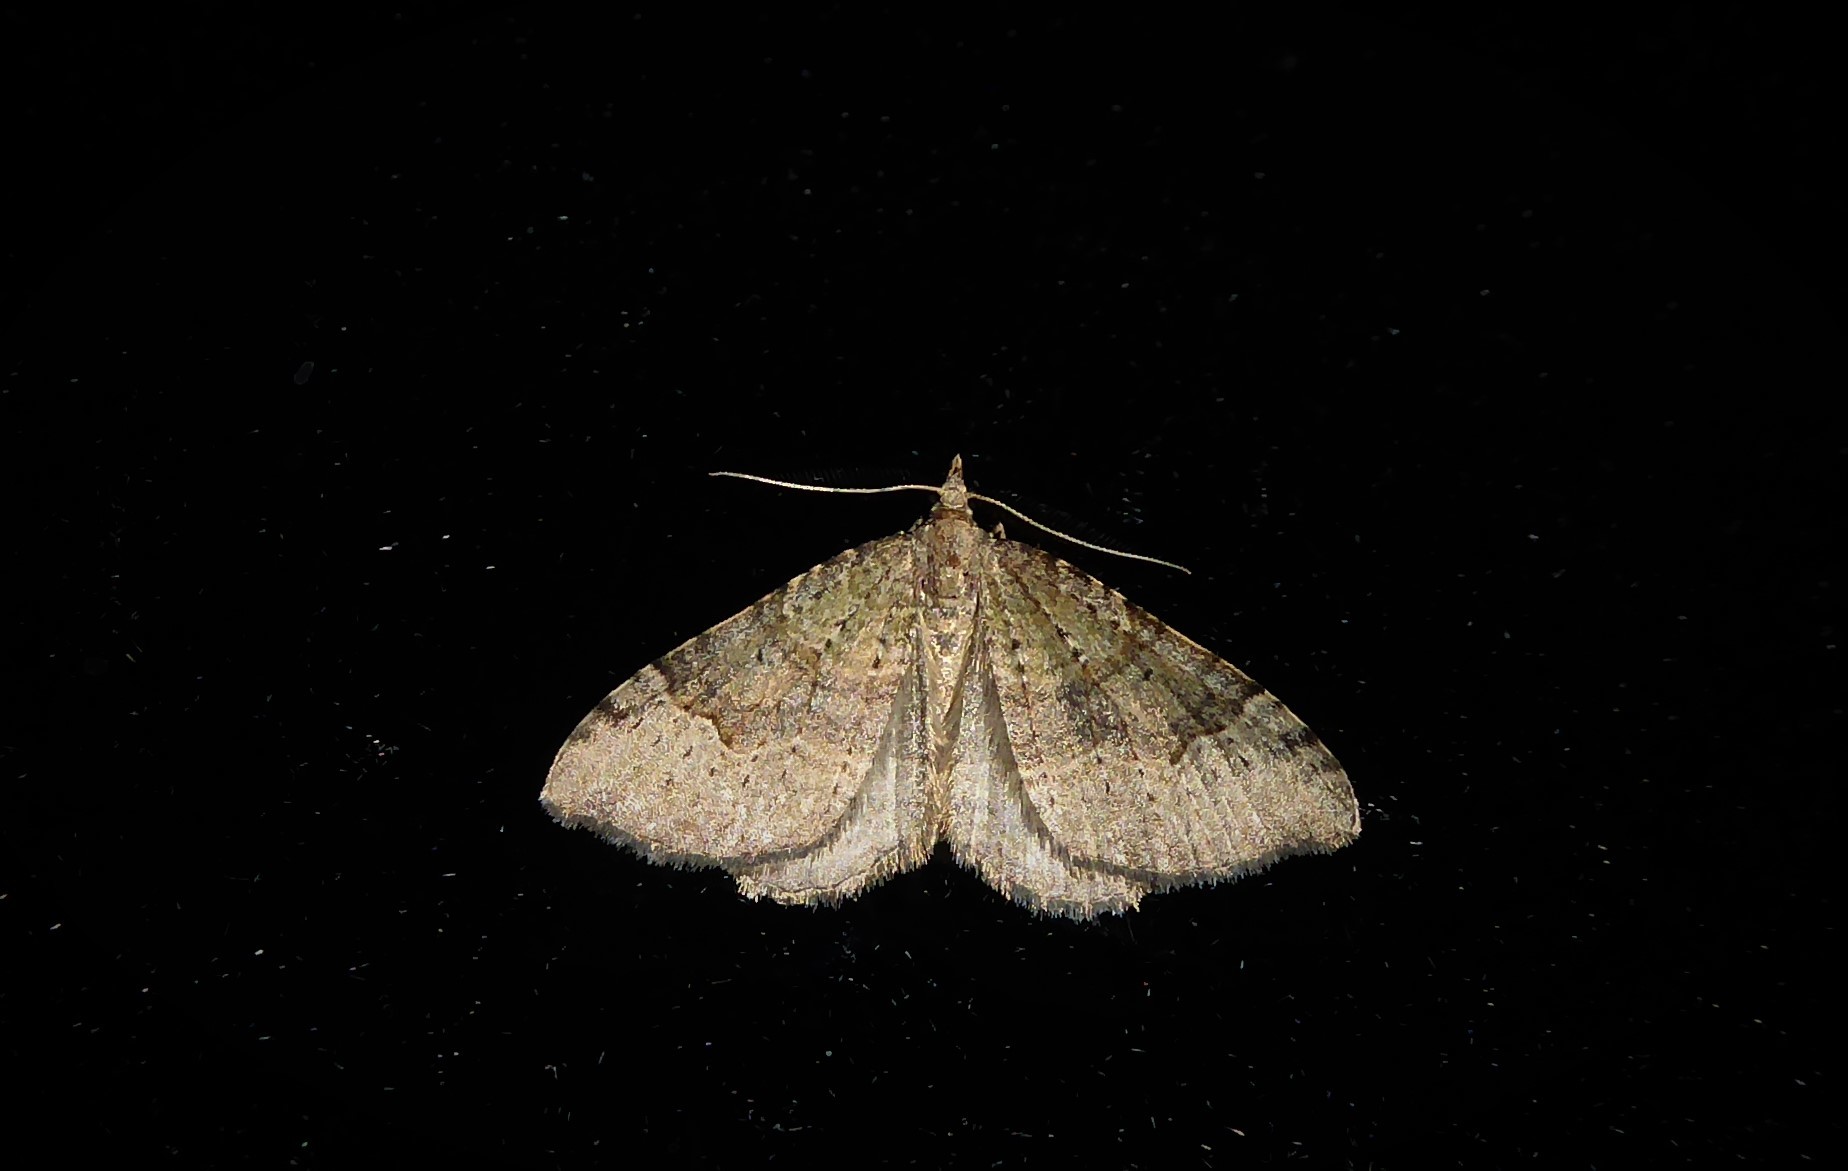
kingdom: Animalia
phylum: Arthropoda
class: Insecta
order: Lepidoptera
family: Geometridae
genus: Epyaxa
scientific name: Epyaxa rosearia
